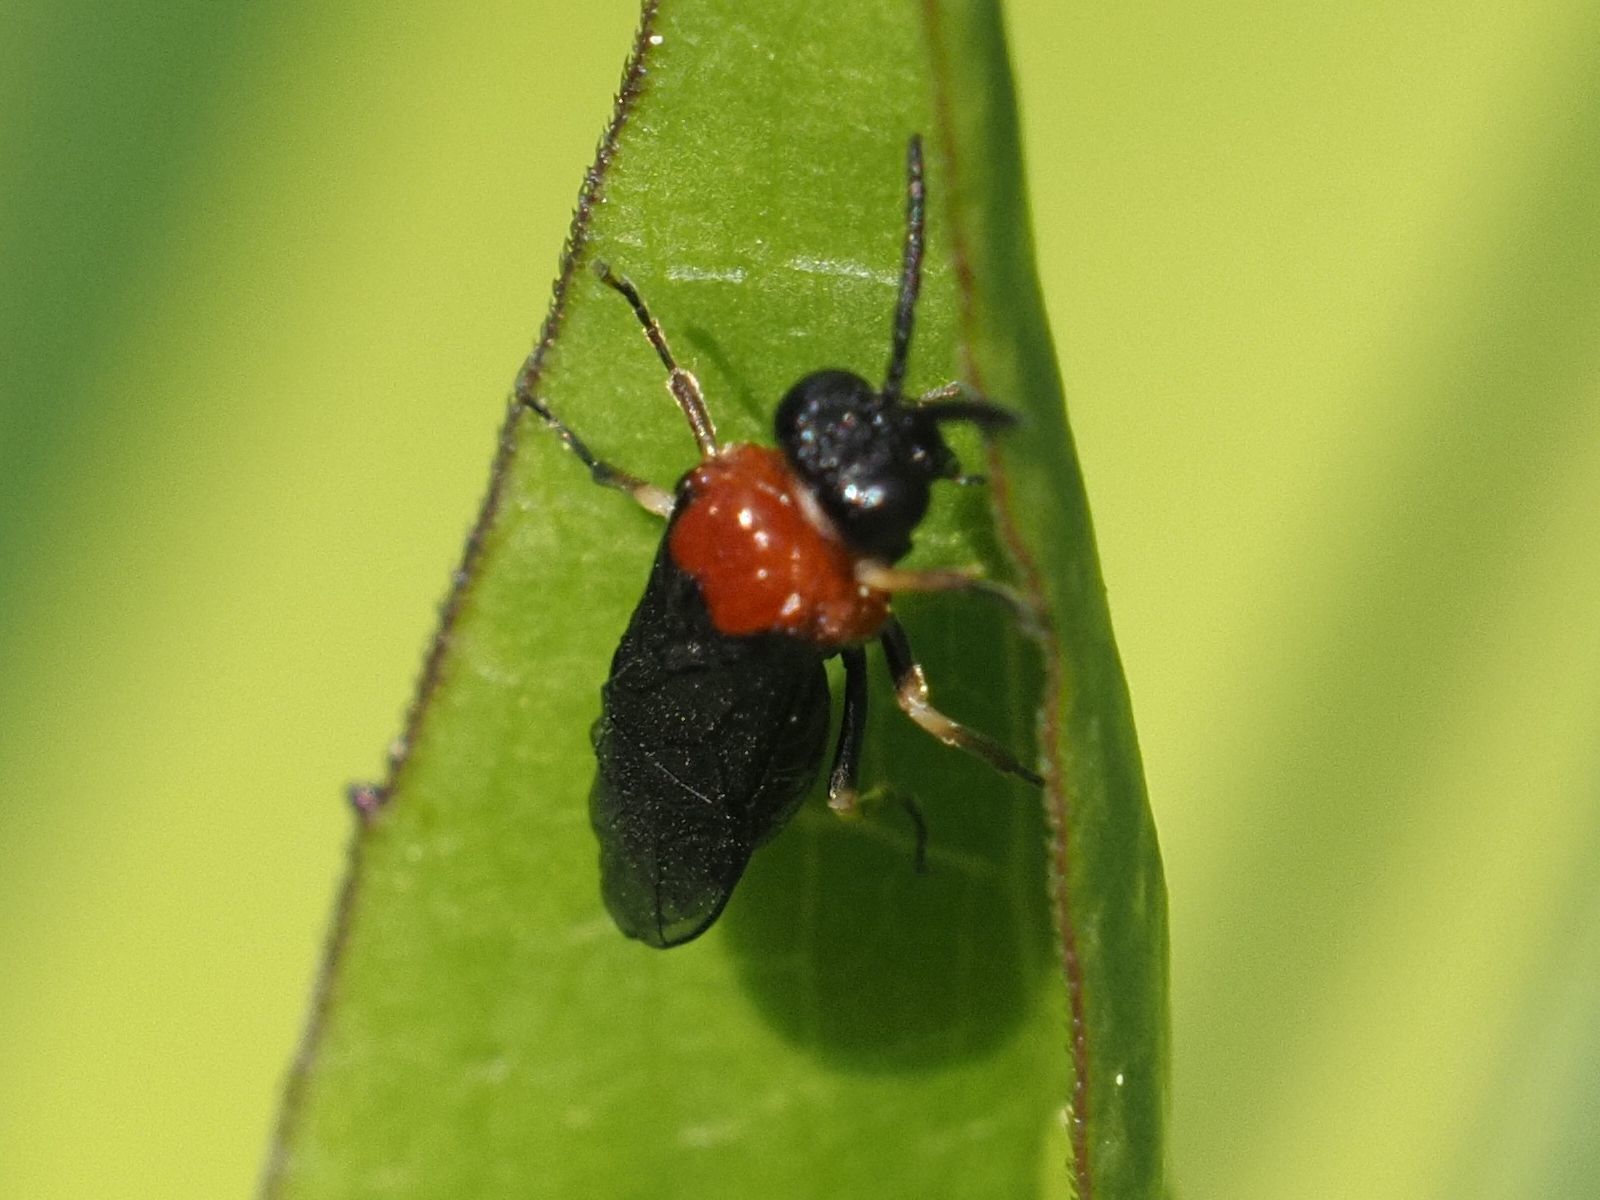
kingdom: Animalia
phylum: Arthropoda
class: Insecta
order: Hymenoptera
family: Tenthredinidae
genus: Eutomostethus
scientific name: Eutomostethus ephippium
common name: Tenthredid wasp
